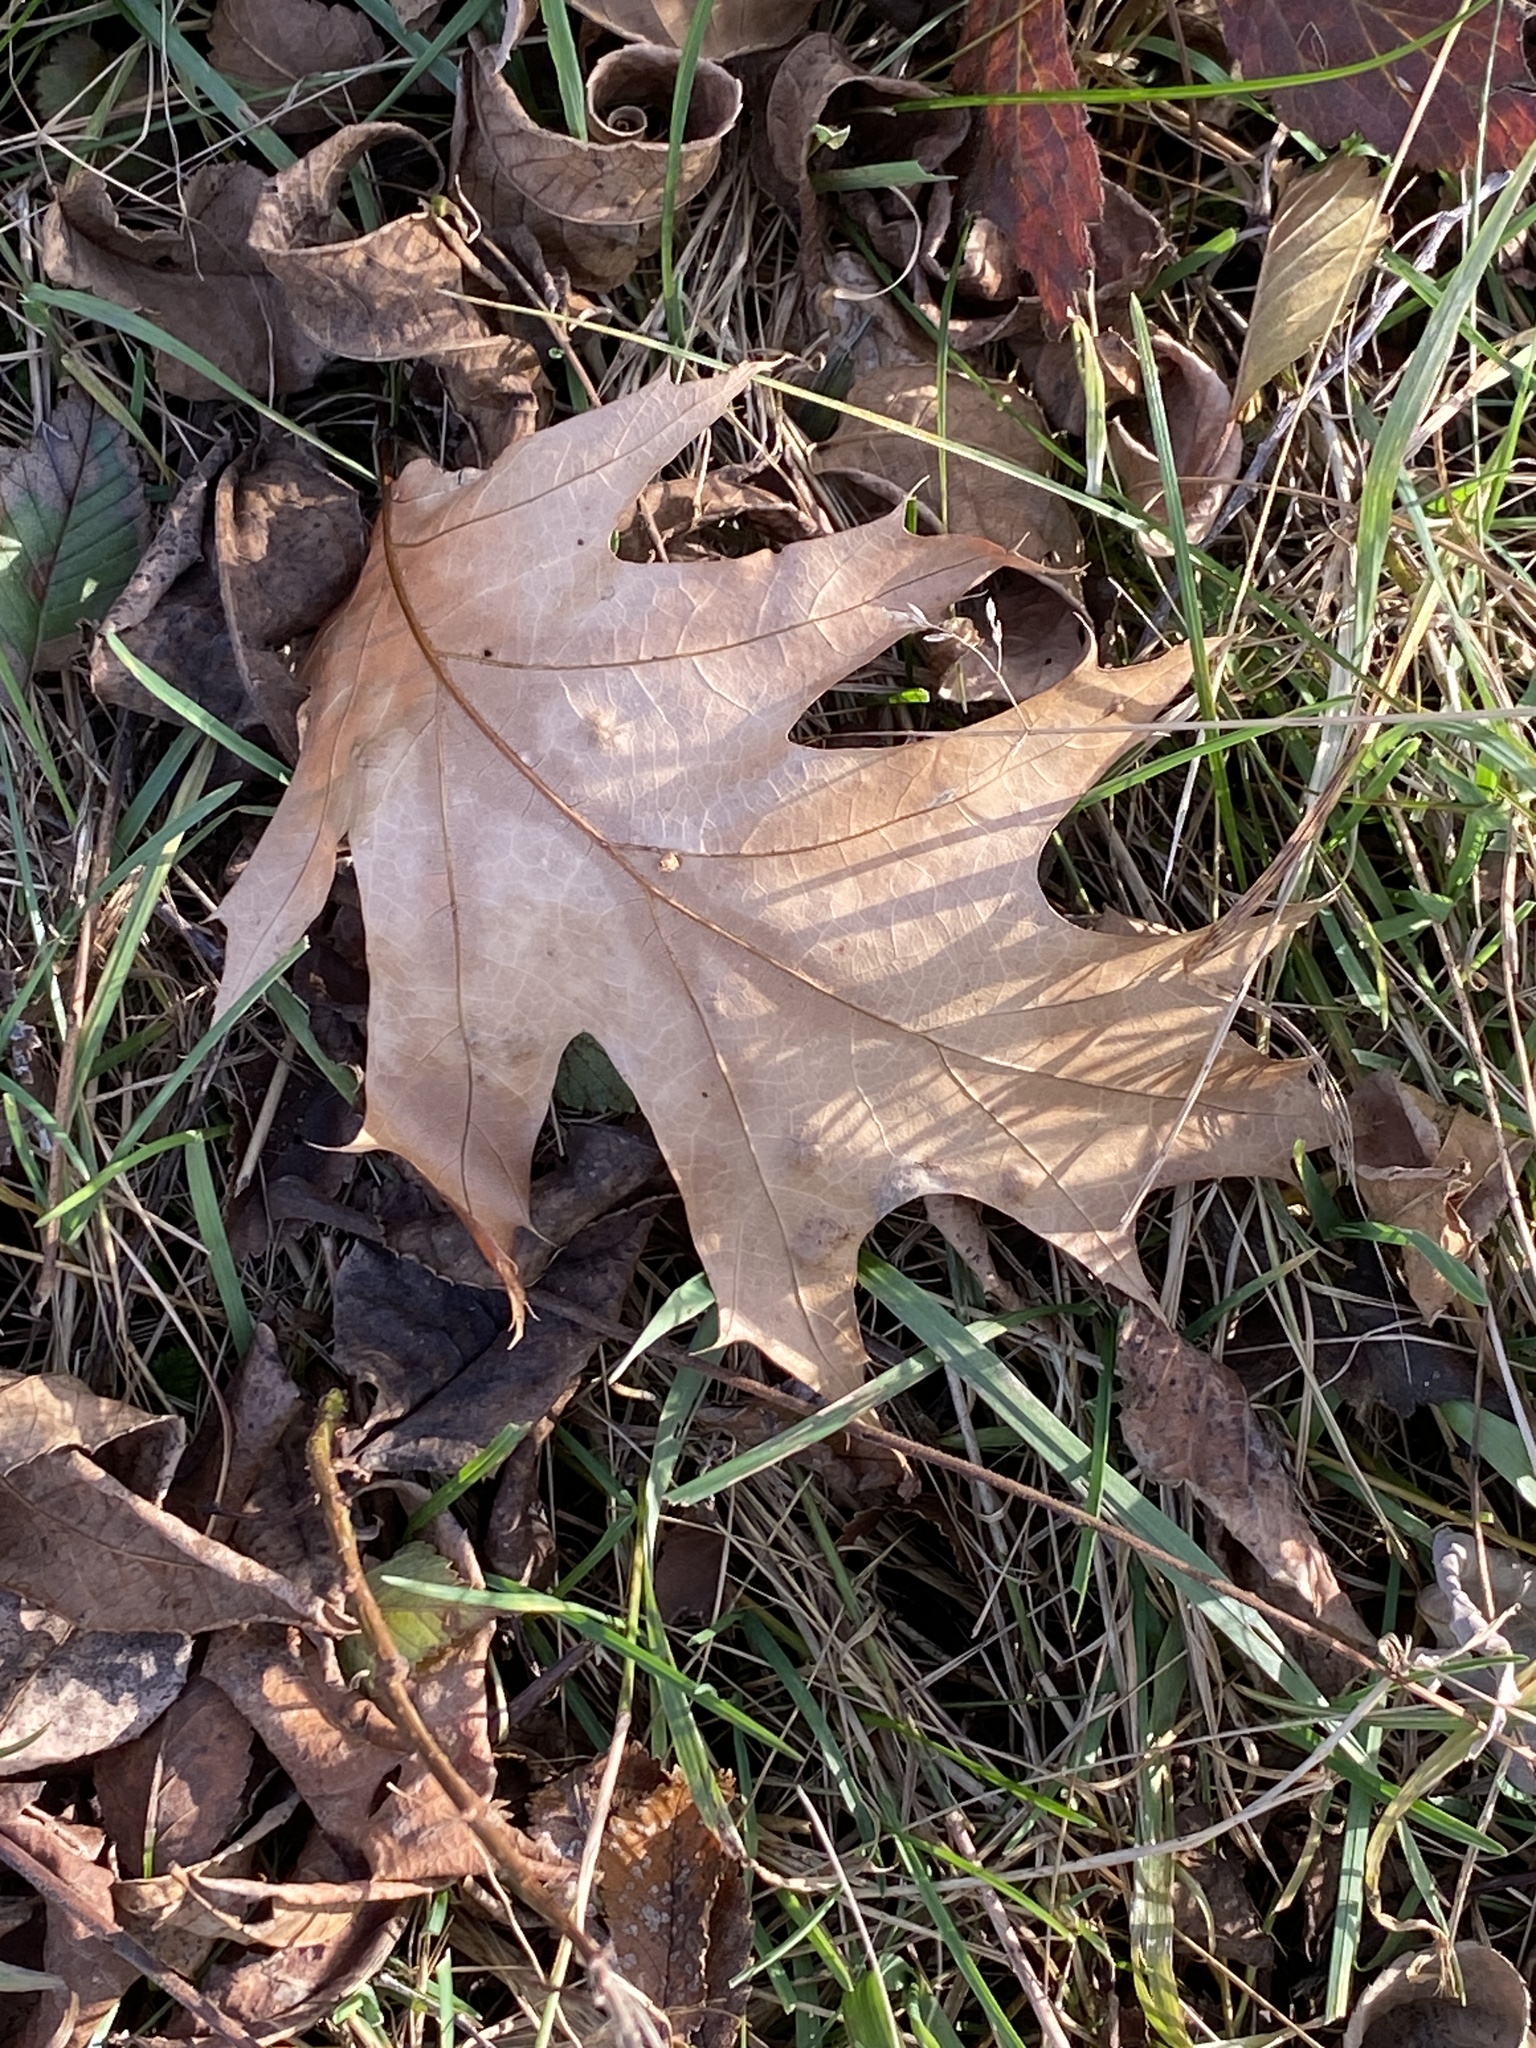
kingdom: Plantae
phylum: Tracheophyta
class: Magnoliopsida
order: Fagales
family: Fagaceae
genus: Quercus
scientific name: Quercus rubra
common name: Red oak
